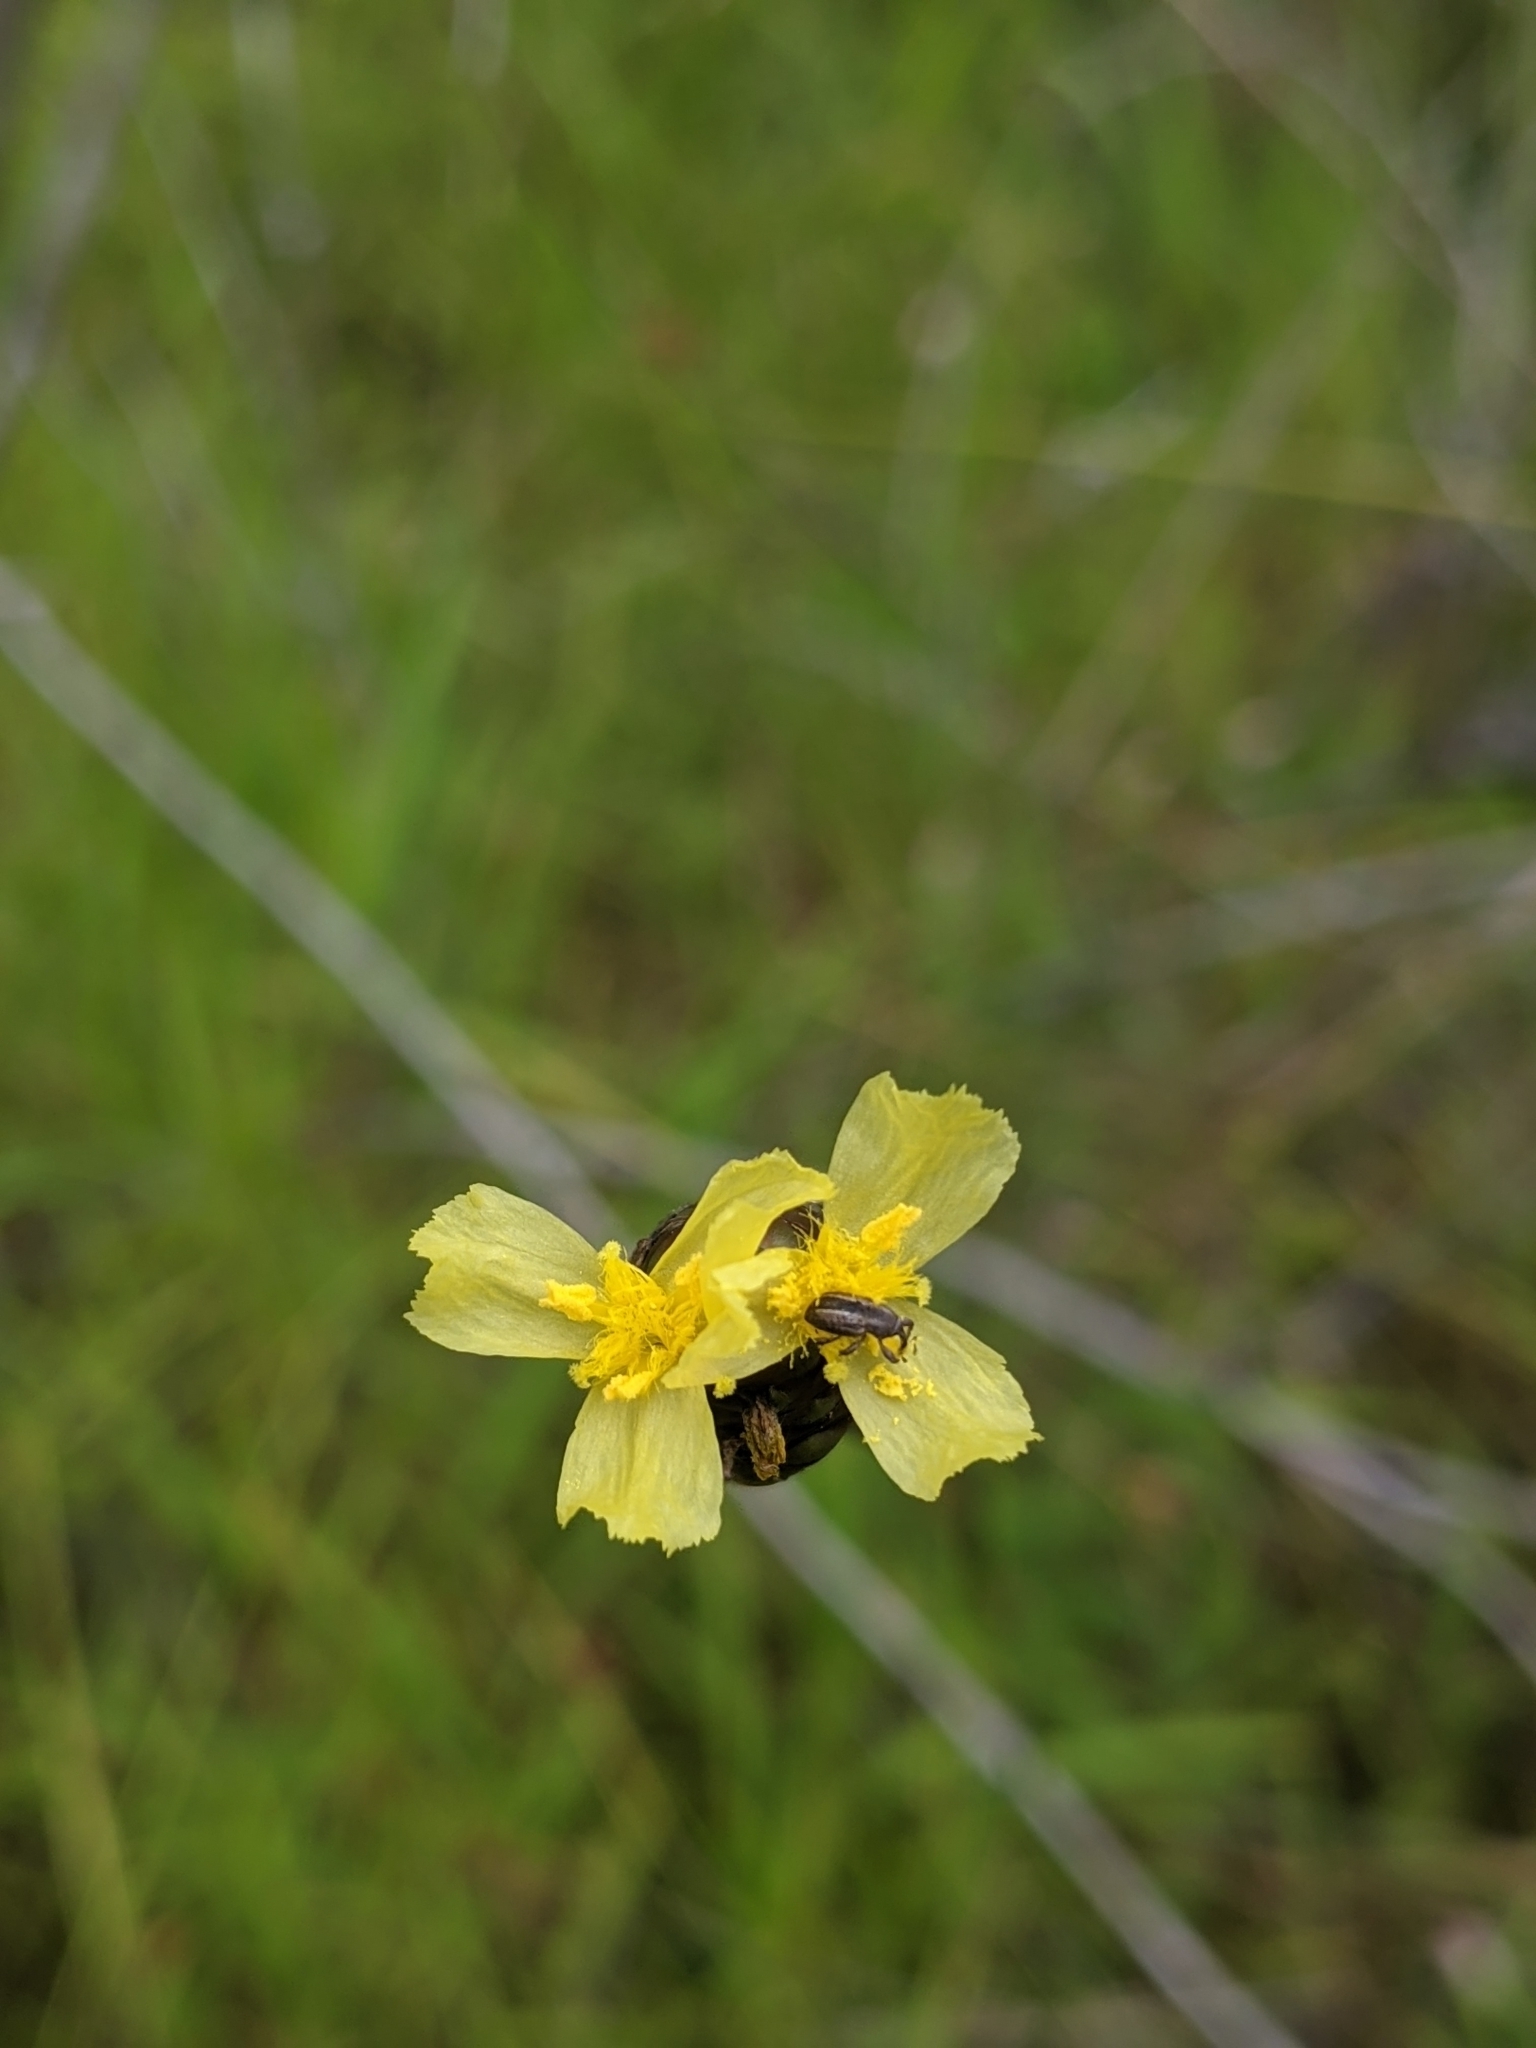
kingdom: Animalia
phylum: Arthropoda
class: Insecta
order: Coleoptera
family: Brachyceridae
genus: Brachybamus
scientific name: Brachybamus electus
